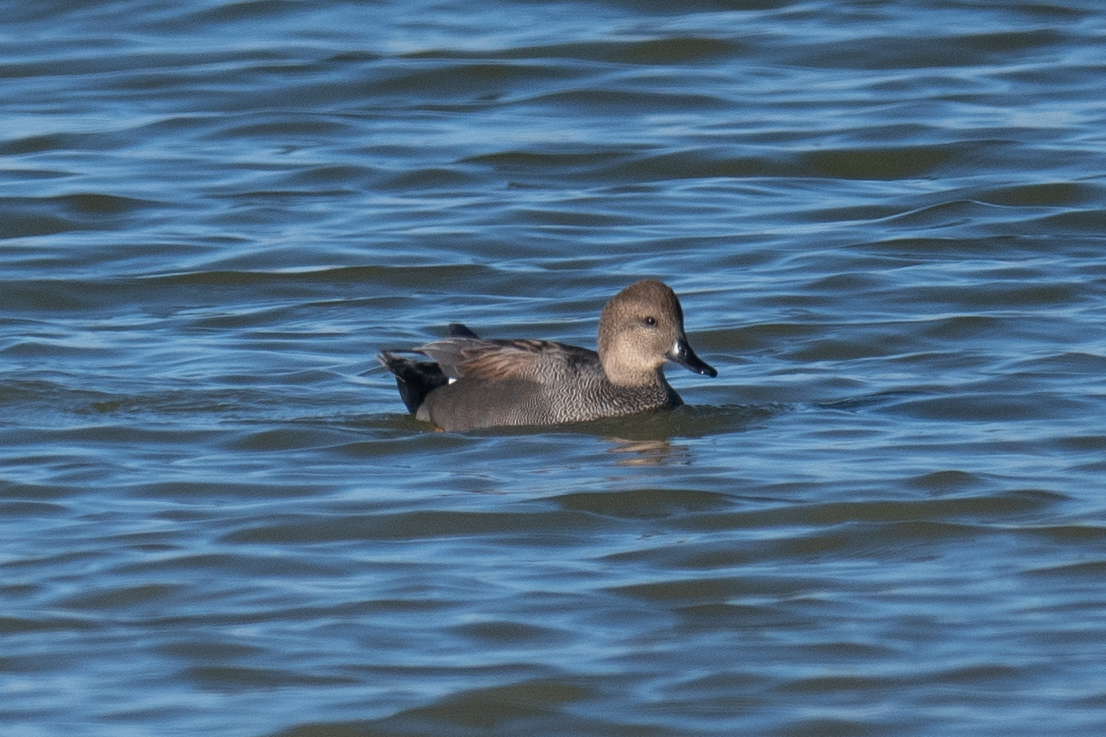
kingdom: Animalia
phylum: Chordata
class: Aves
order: Anseriformes
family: Anatidae
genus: Mareca
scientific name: Mareca strepera
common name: Gadwall
